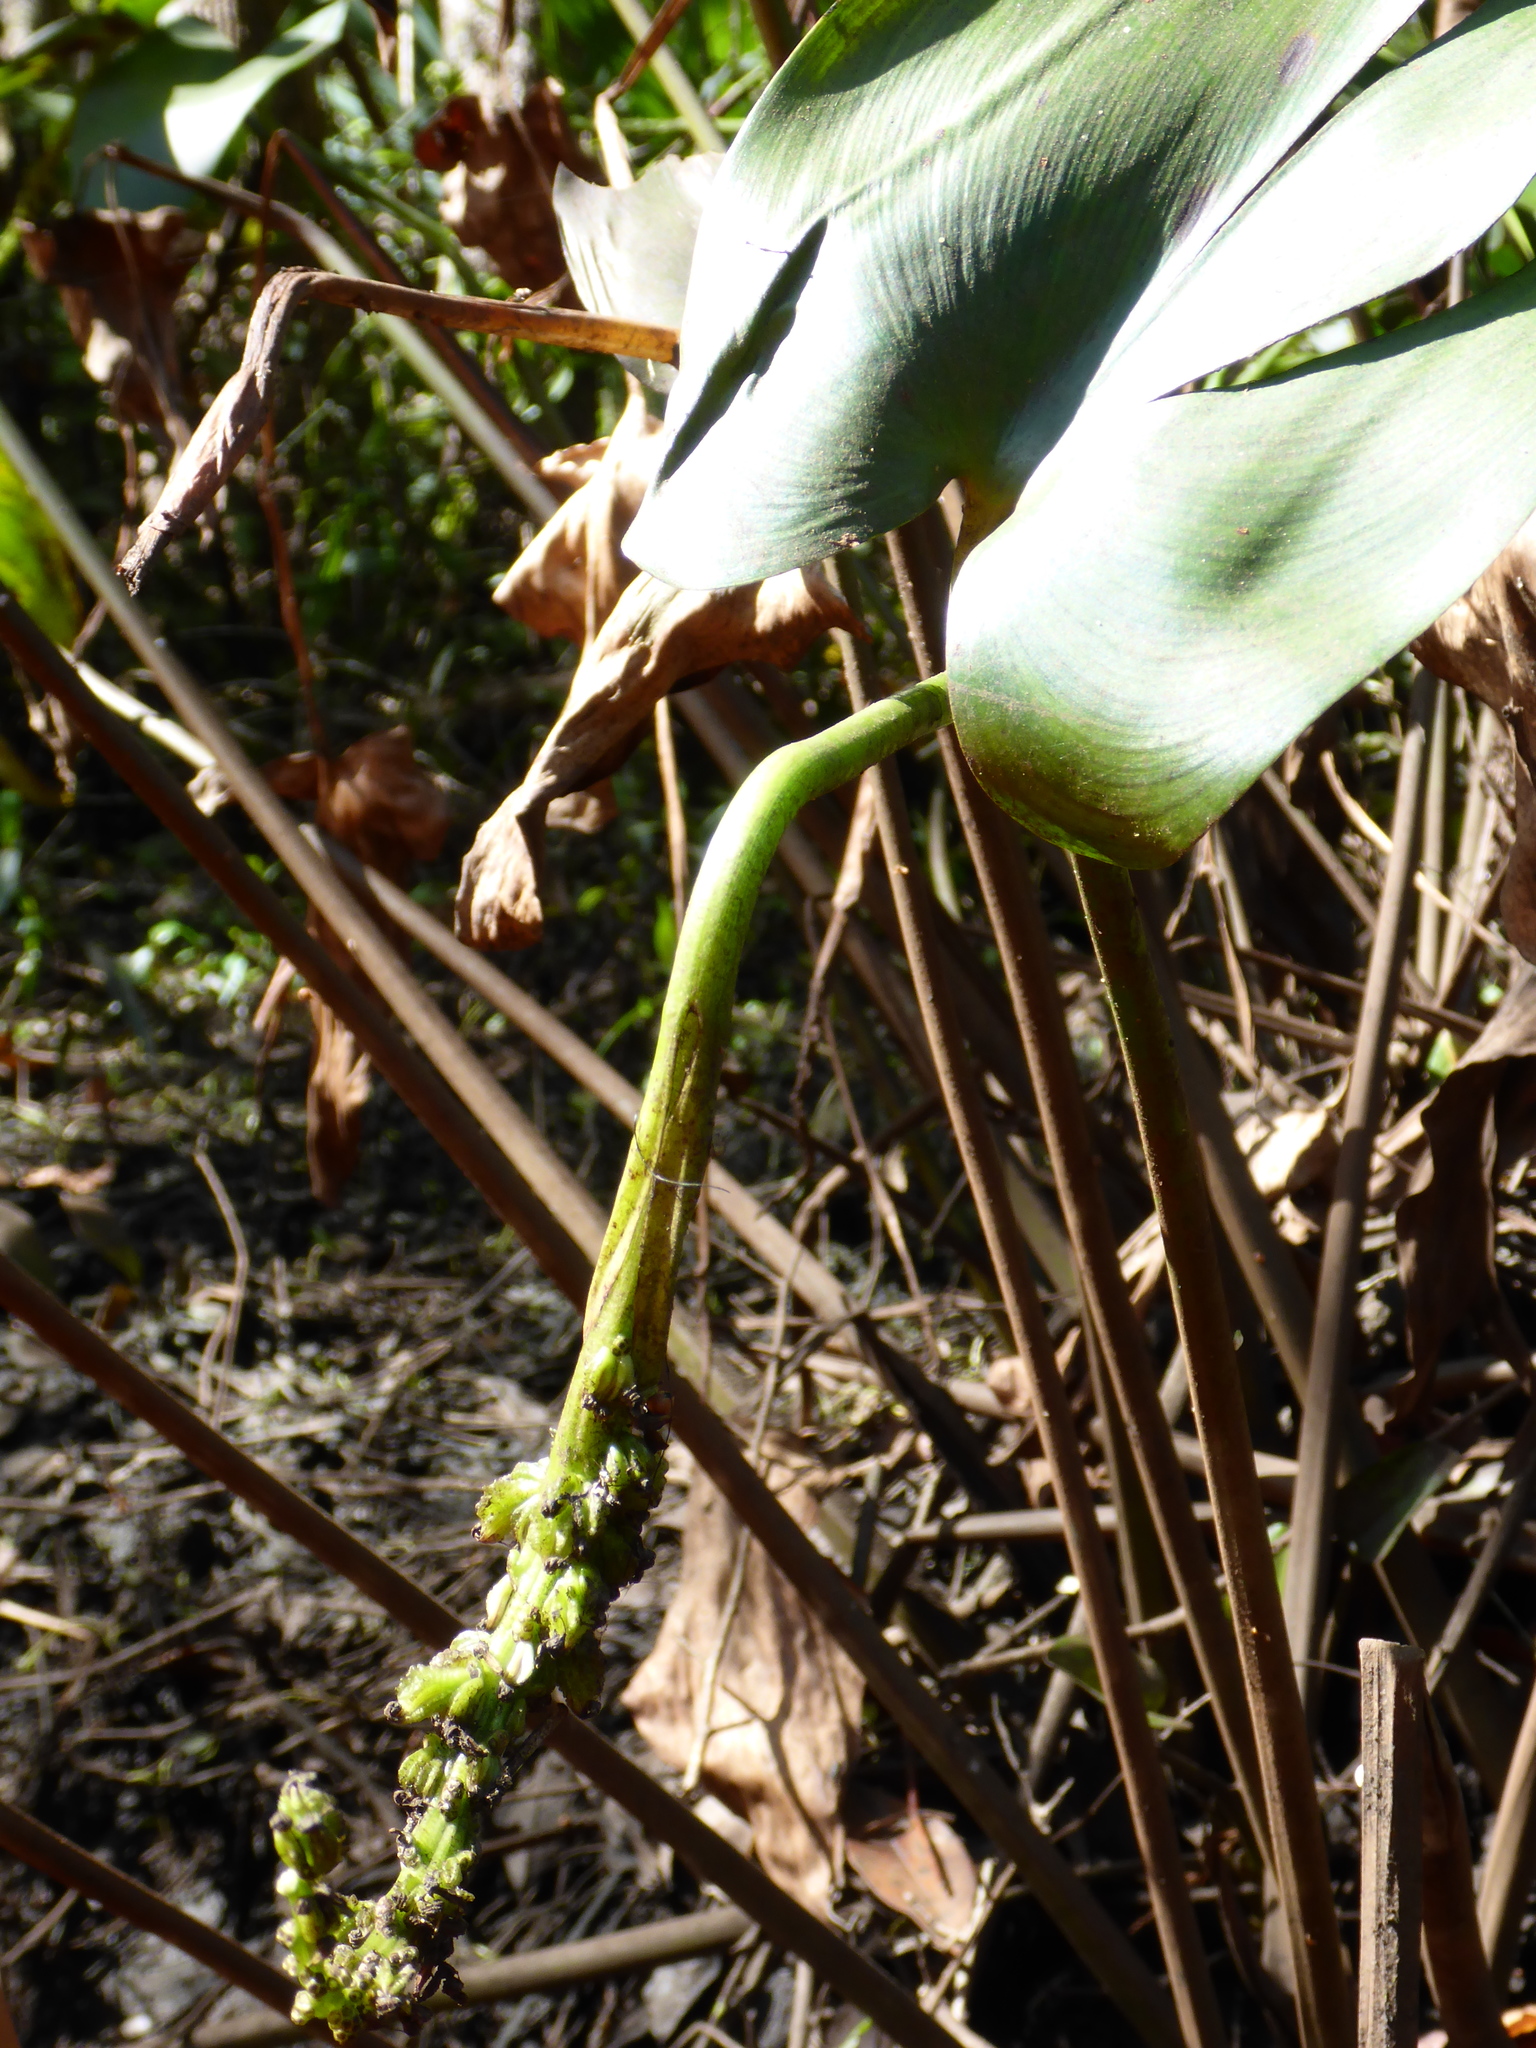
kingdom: Plantae
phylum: Tracheophyta
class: Liliopsida
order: Commelinales
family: Pontederiaceae
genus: Pontederia
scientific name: Pontederia cordata
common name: Pickerelweed
